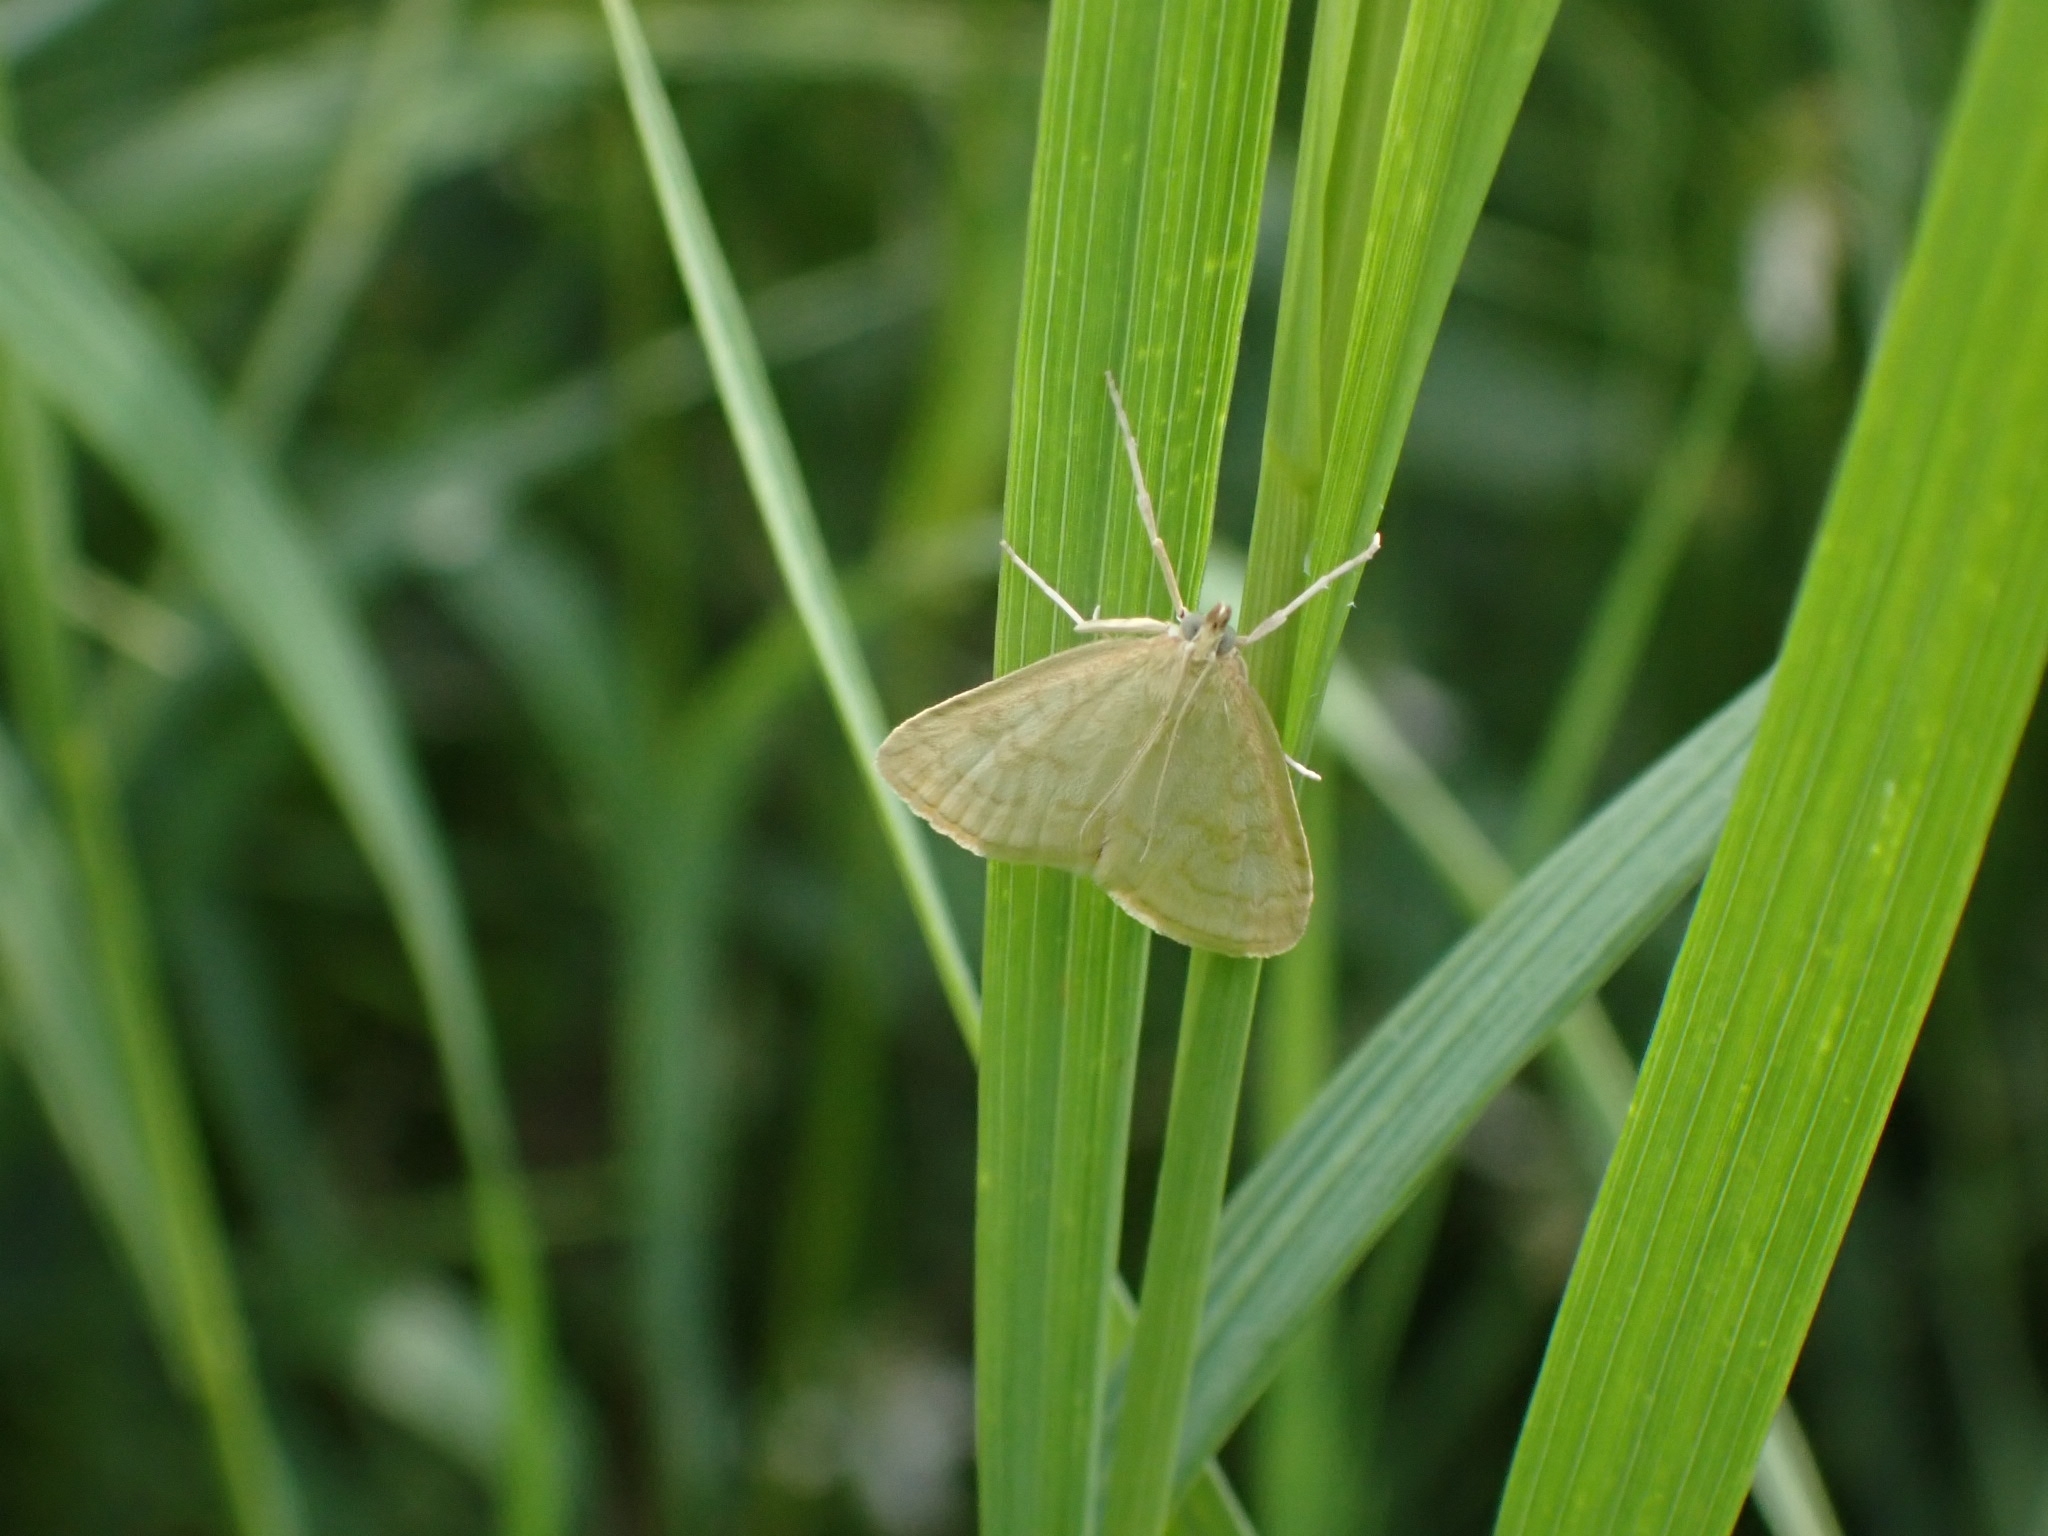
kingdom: Animalia
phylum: Arthropoda
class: Insecta
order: Lepidoptera
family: Crambidae
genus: Udea
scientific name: Udea lutealis
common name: Pale straw pearl
